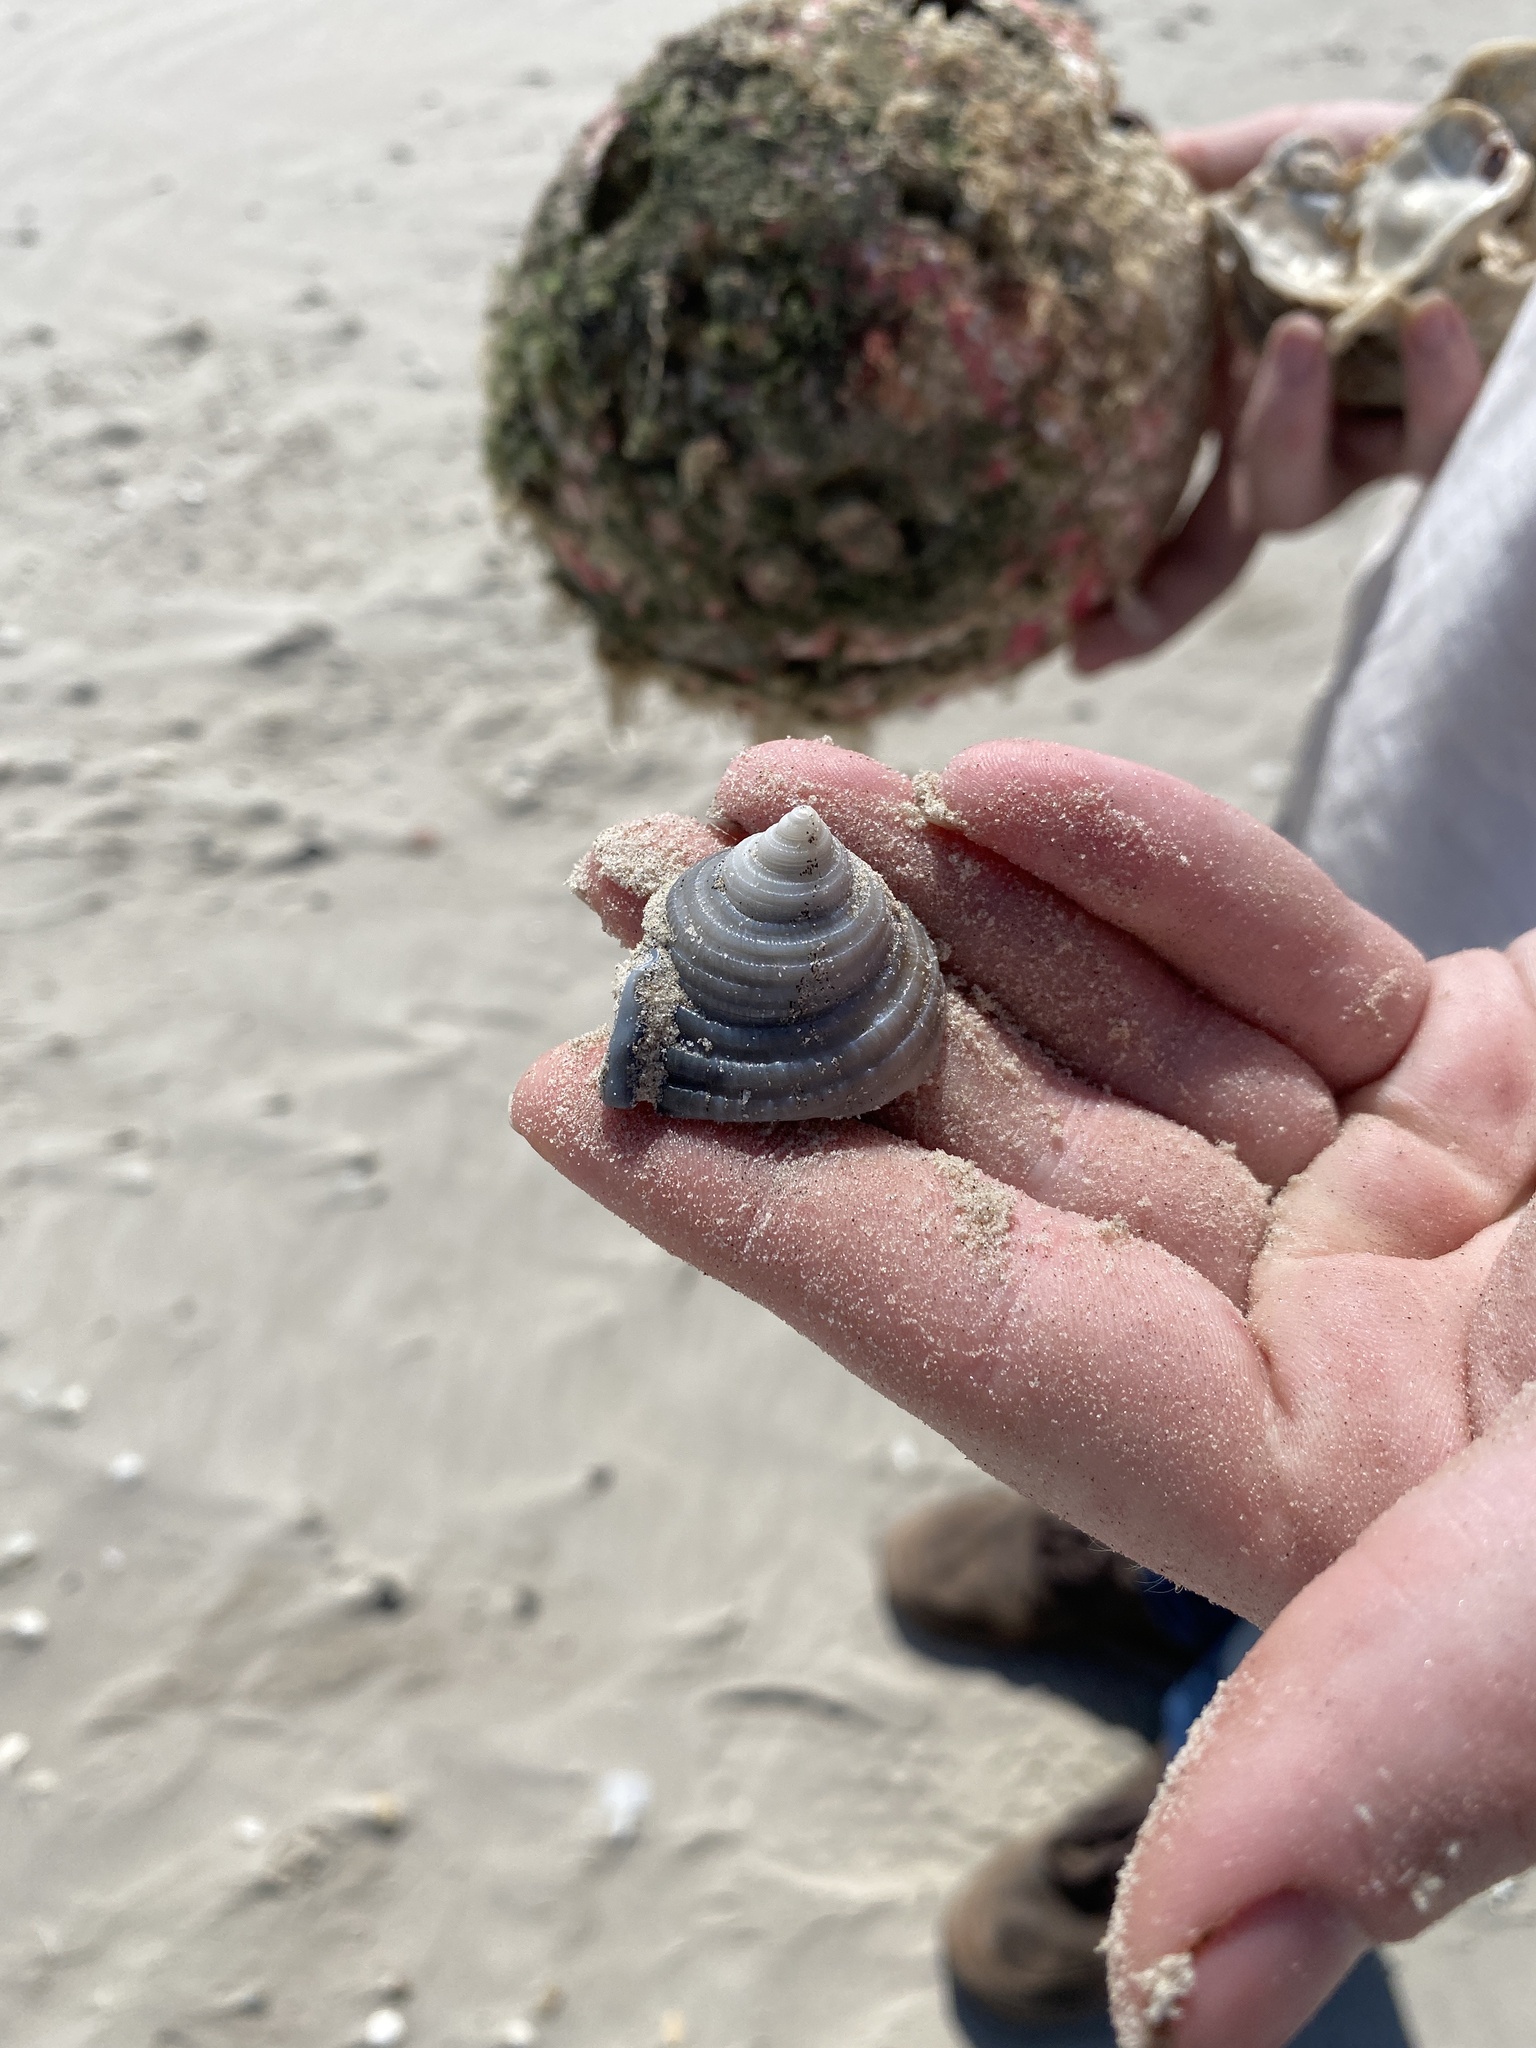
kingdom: Animalia
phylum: Mollusca
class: Gastropoda
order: Littorinimorpha
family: Cassidae
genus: Semicassis
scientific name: Semicassis granulata
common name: Scotch bonnet
